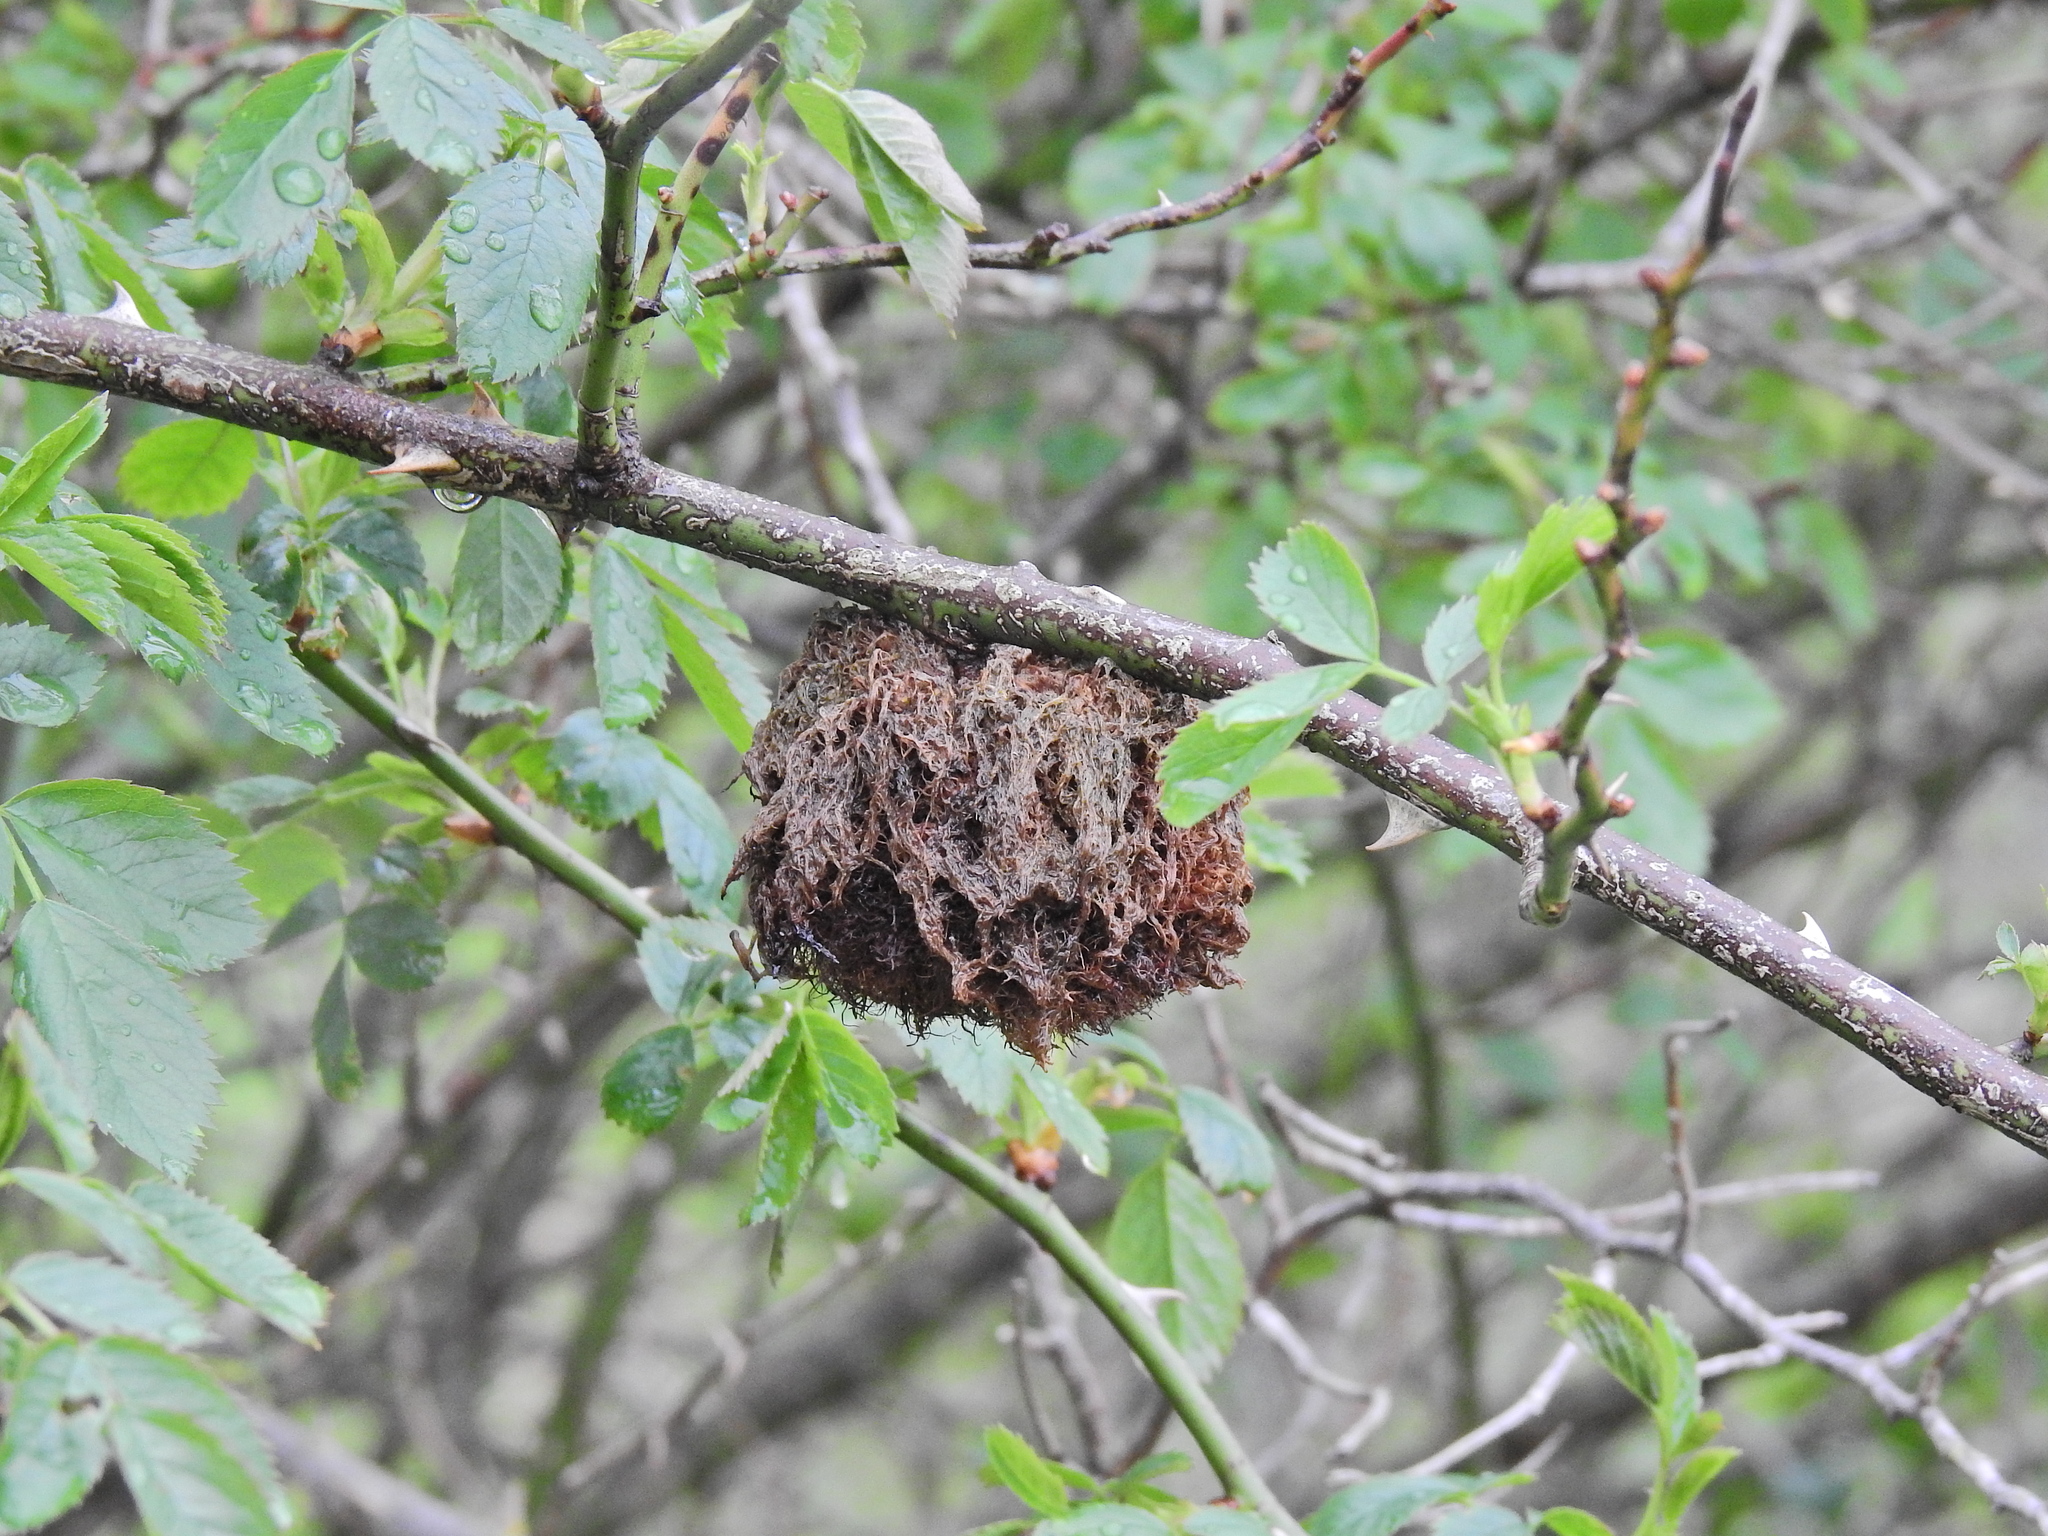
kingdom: Animalia
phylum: Arthropoda
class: Insecta
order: Hymenoptera
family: Cynipidae
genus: Diplolepis
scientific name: Diplolepis rosae
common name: Bedeguar gall
